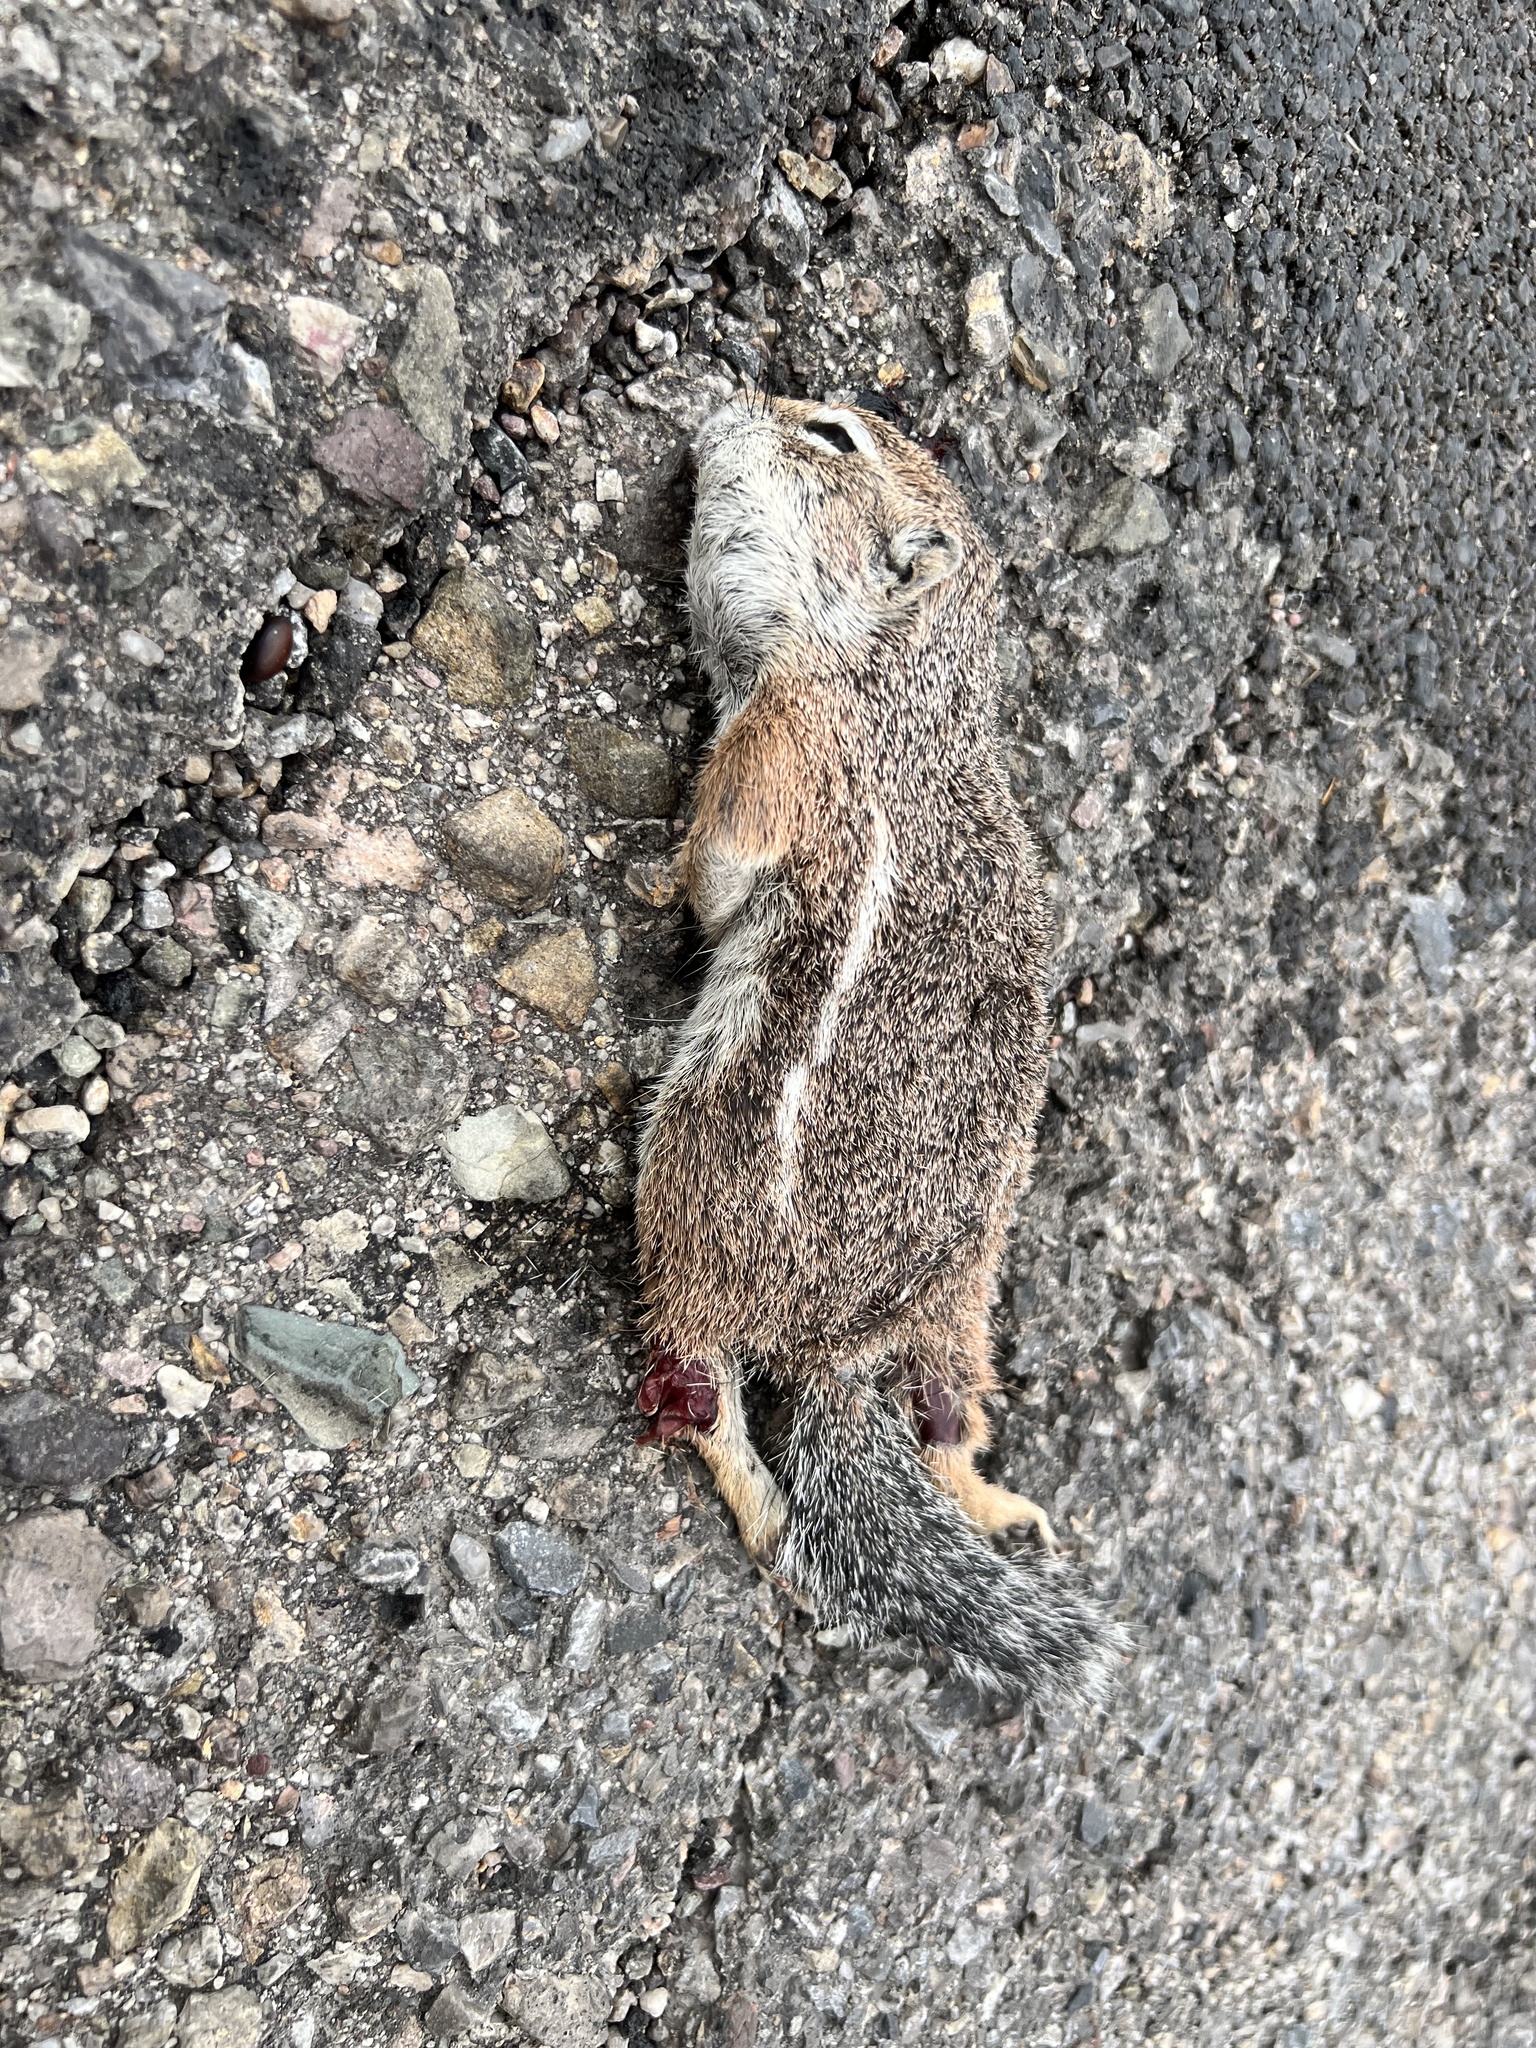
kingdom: Animalia
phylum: Chordata
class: Mammalia
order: Rodentia
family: Sciuridae
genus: Ammospermophilus
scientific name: Ammospermophilus harrisii
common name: Harris's antelope squirrel
